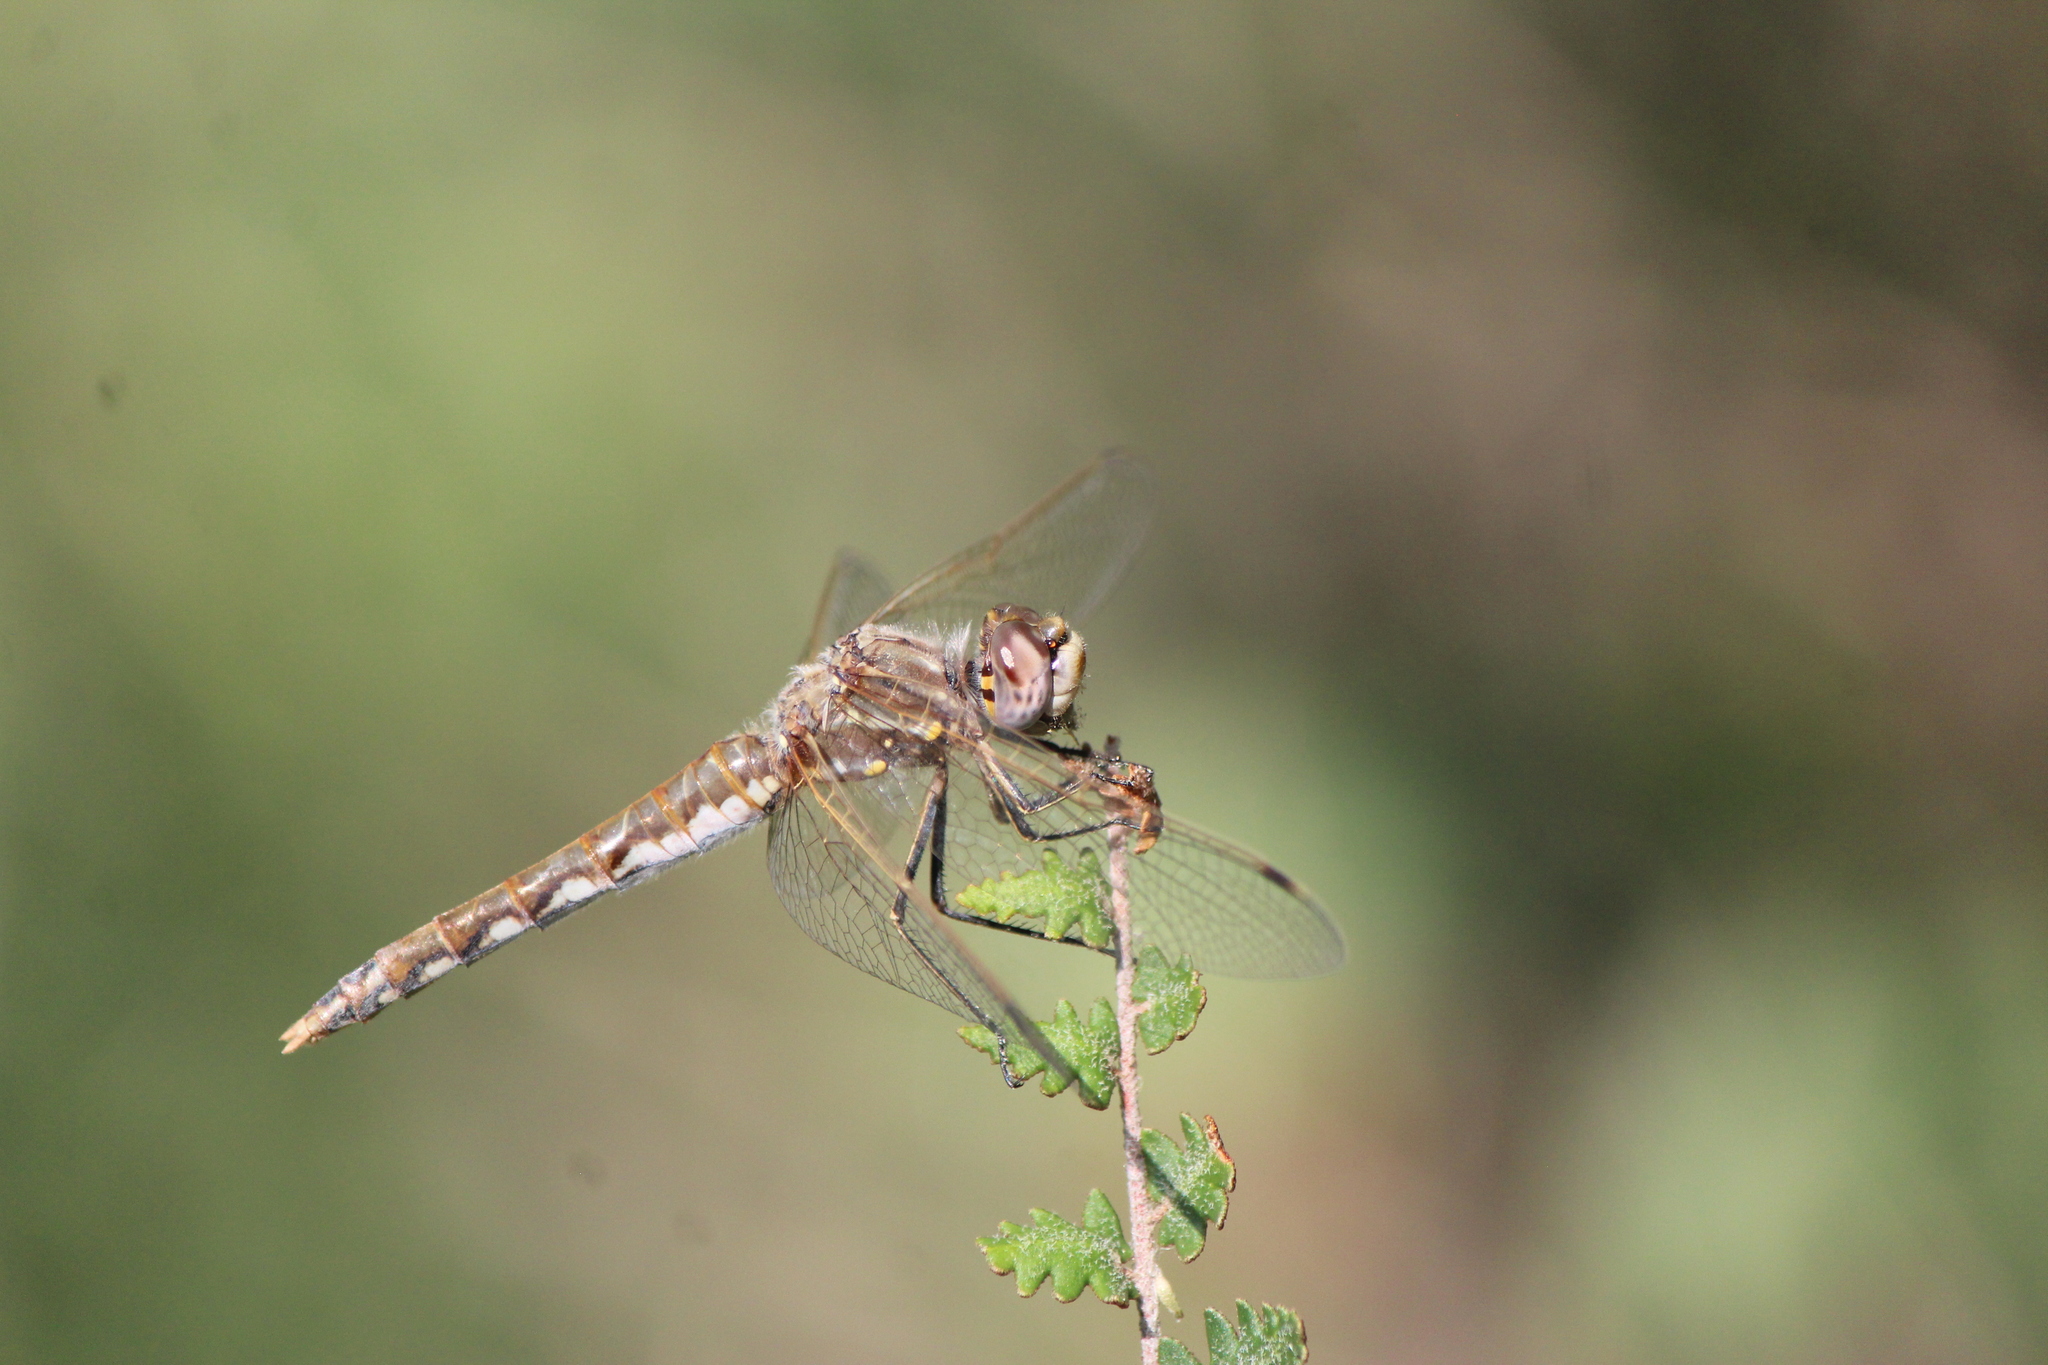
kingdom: Animalia
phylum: Arthropoda
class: Insecta
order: Odonata
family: Libellulidae
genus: Sympetrum
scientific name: Sympetrum corruptum
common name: Variegated meadowhawk
